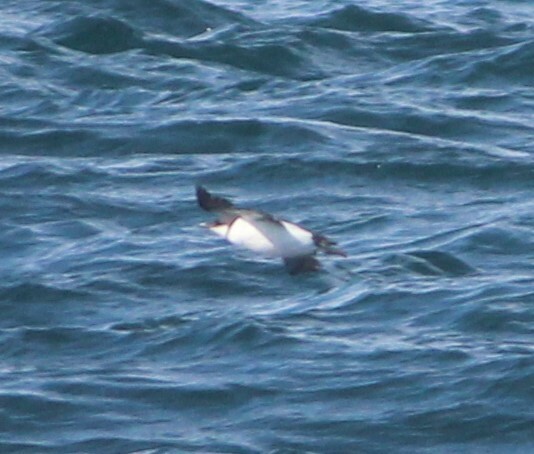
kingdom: Animalia
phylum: Chordata
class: Aves
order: Charadriiformes
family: Alcidae
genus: Uria
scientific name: Uria lomvia
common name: Thick-billed murre
